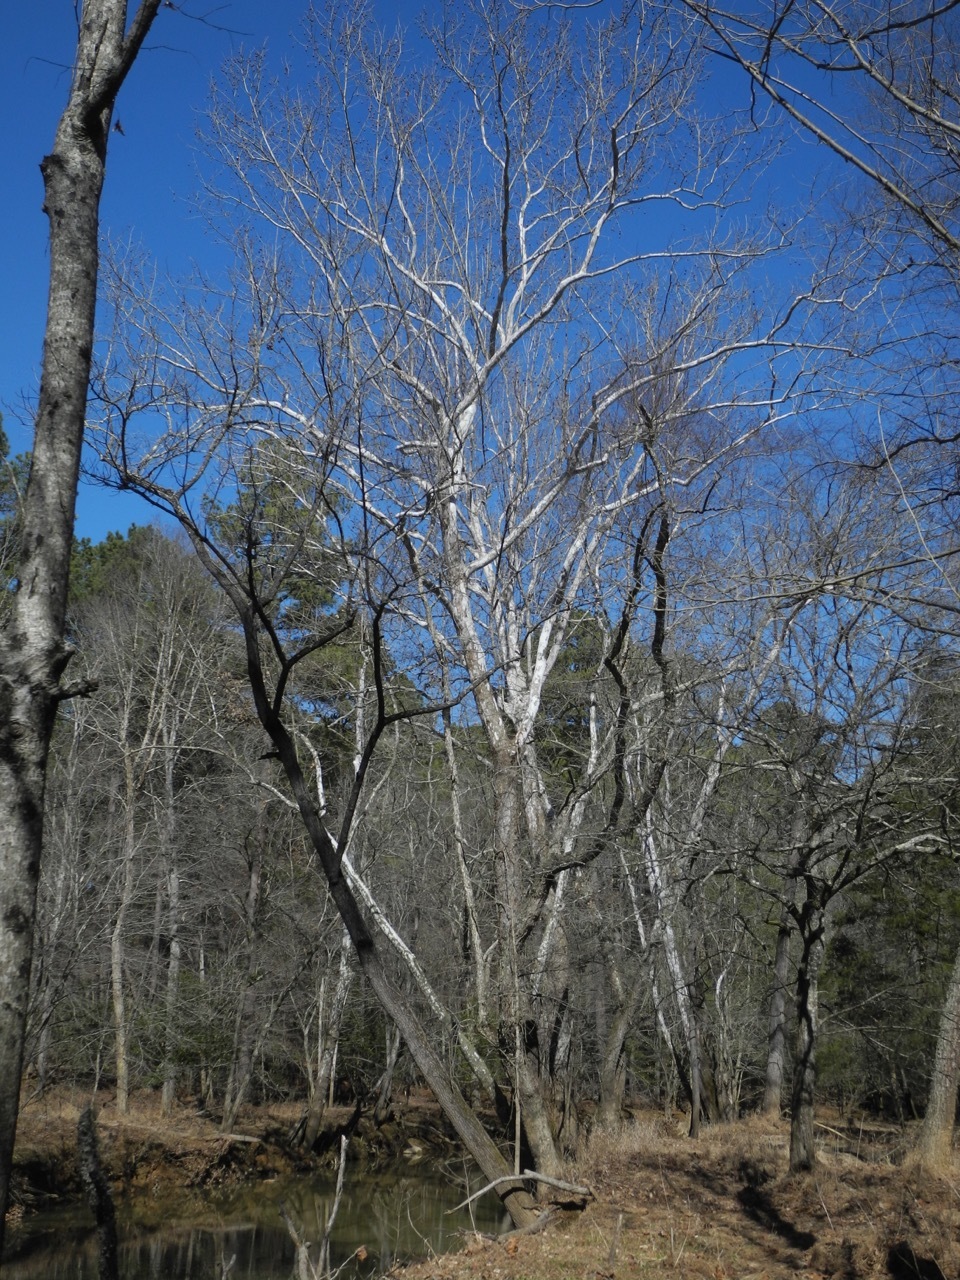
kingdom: Plantae
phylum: Tracheophyta
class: Magnoliopsida
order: Proteales
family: Platanaceae
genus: Platanus
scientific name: Platanus occidentalis
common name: American sycamore
